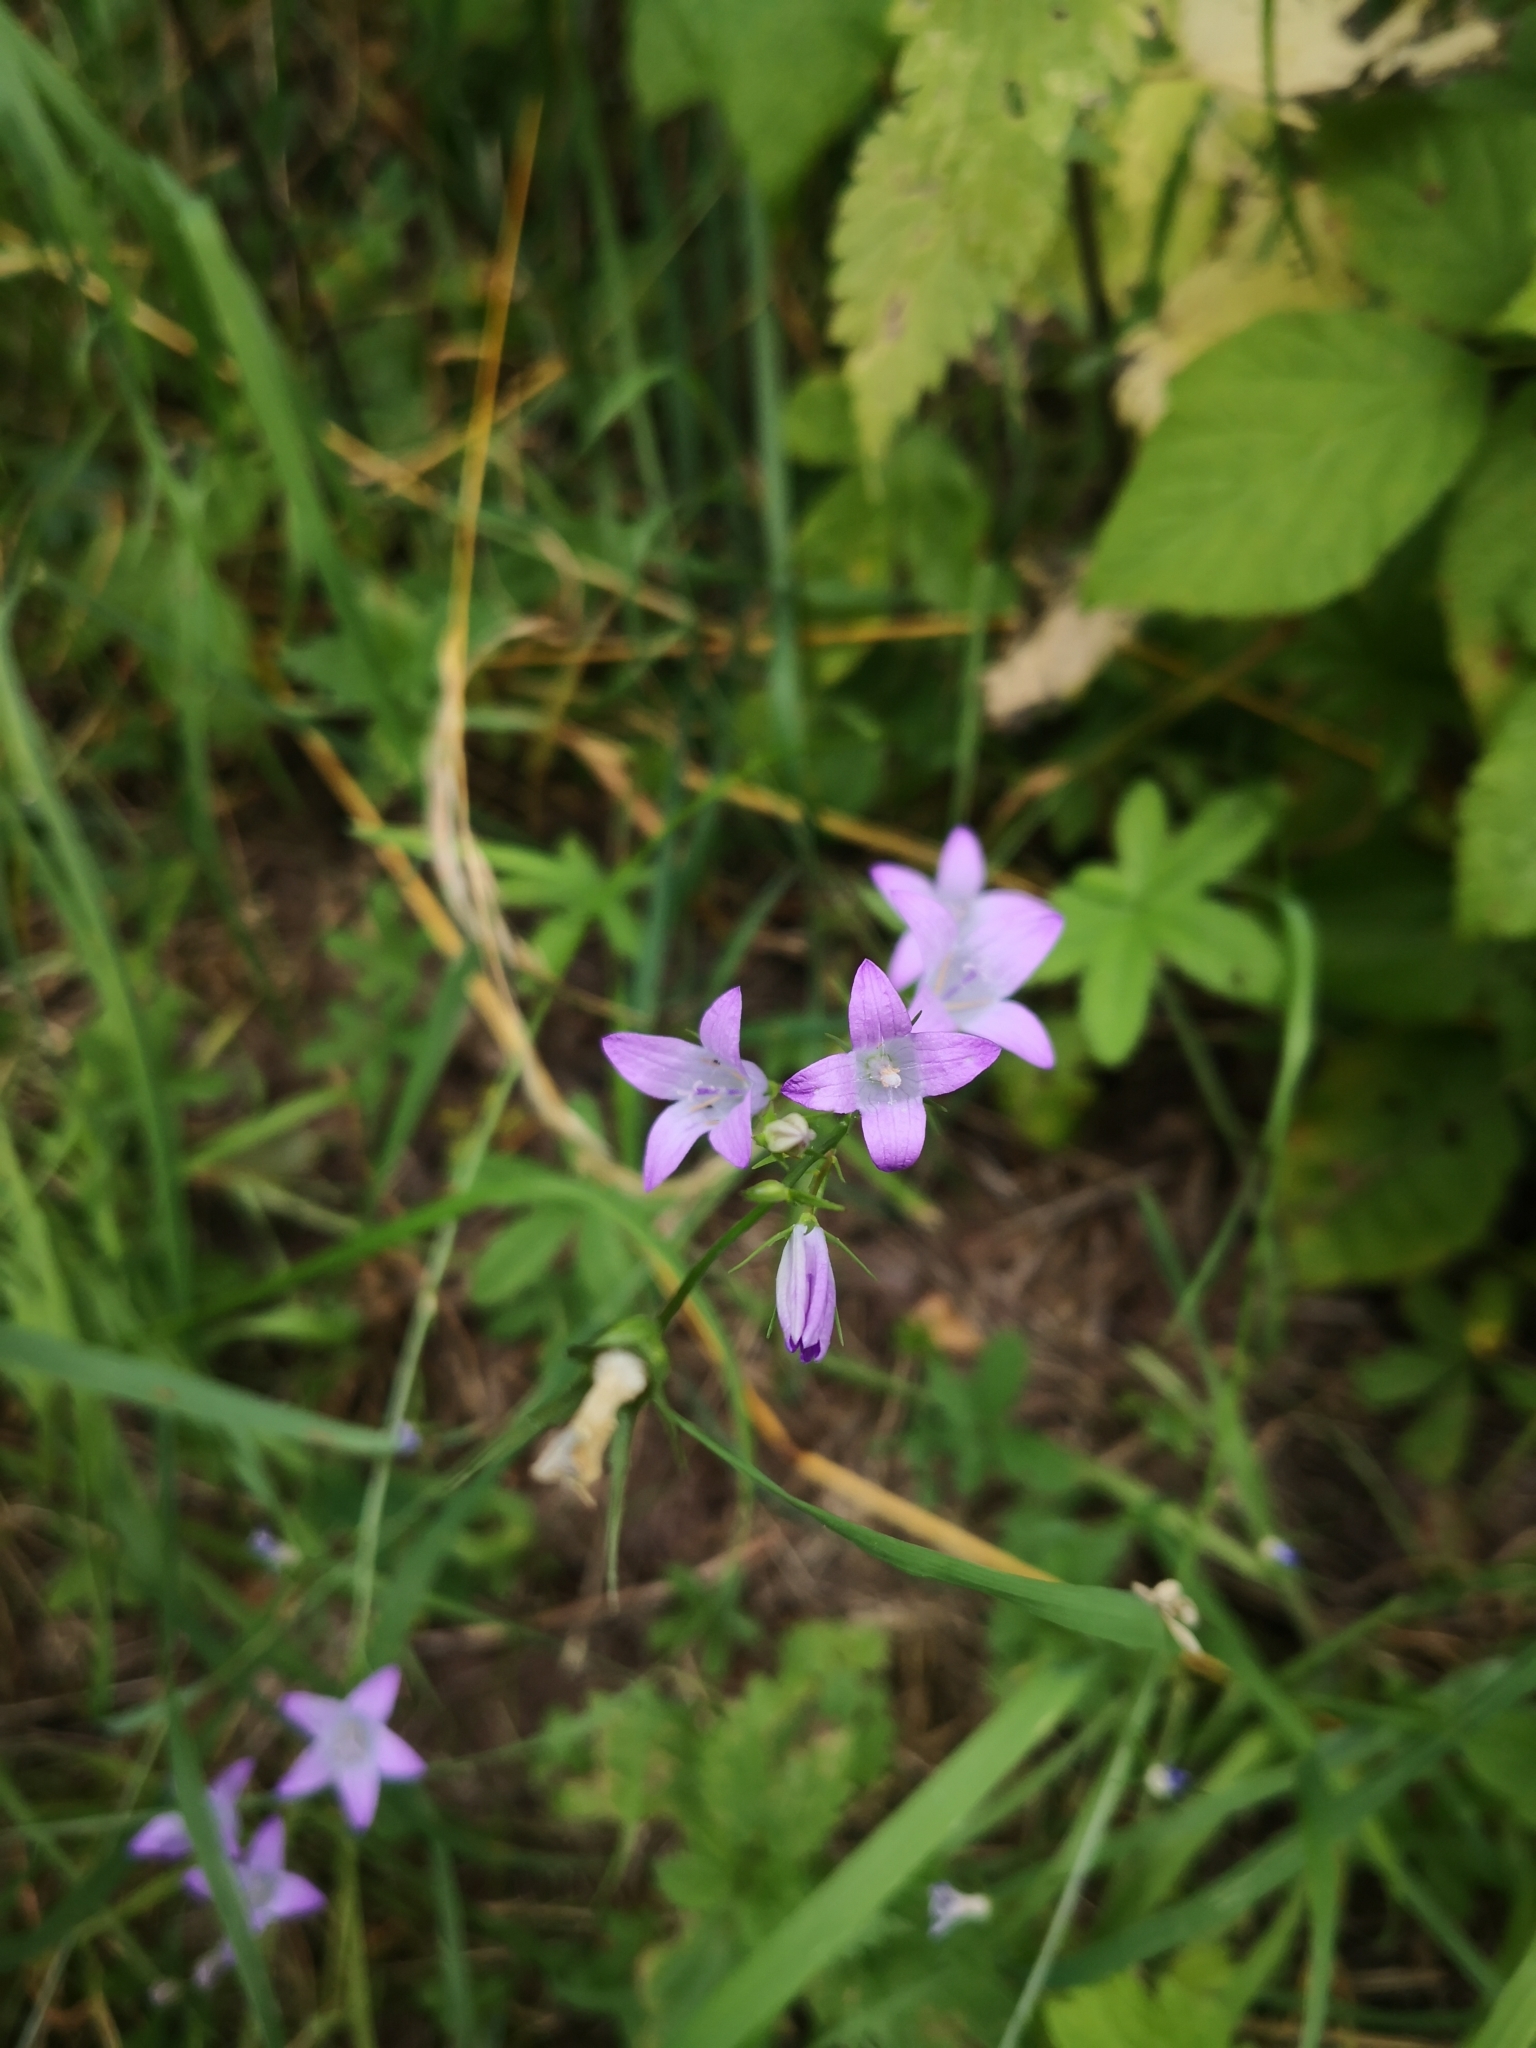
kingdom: Plantae
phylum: Tracheophyta
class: Magnoliopsida
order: Asterales
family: Campanulaceae
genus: Campanula
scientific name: Campanula rapunculus
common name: Rampion bellflower
